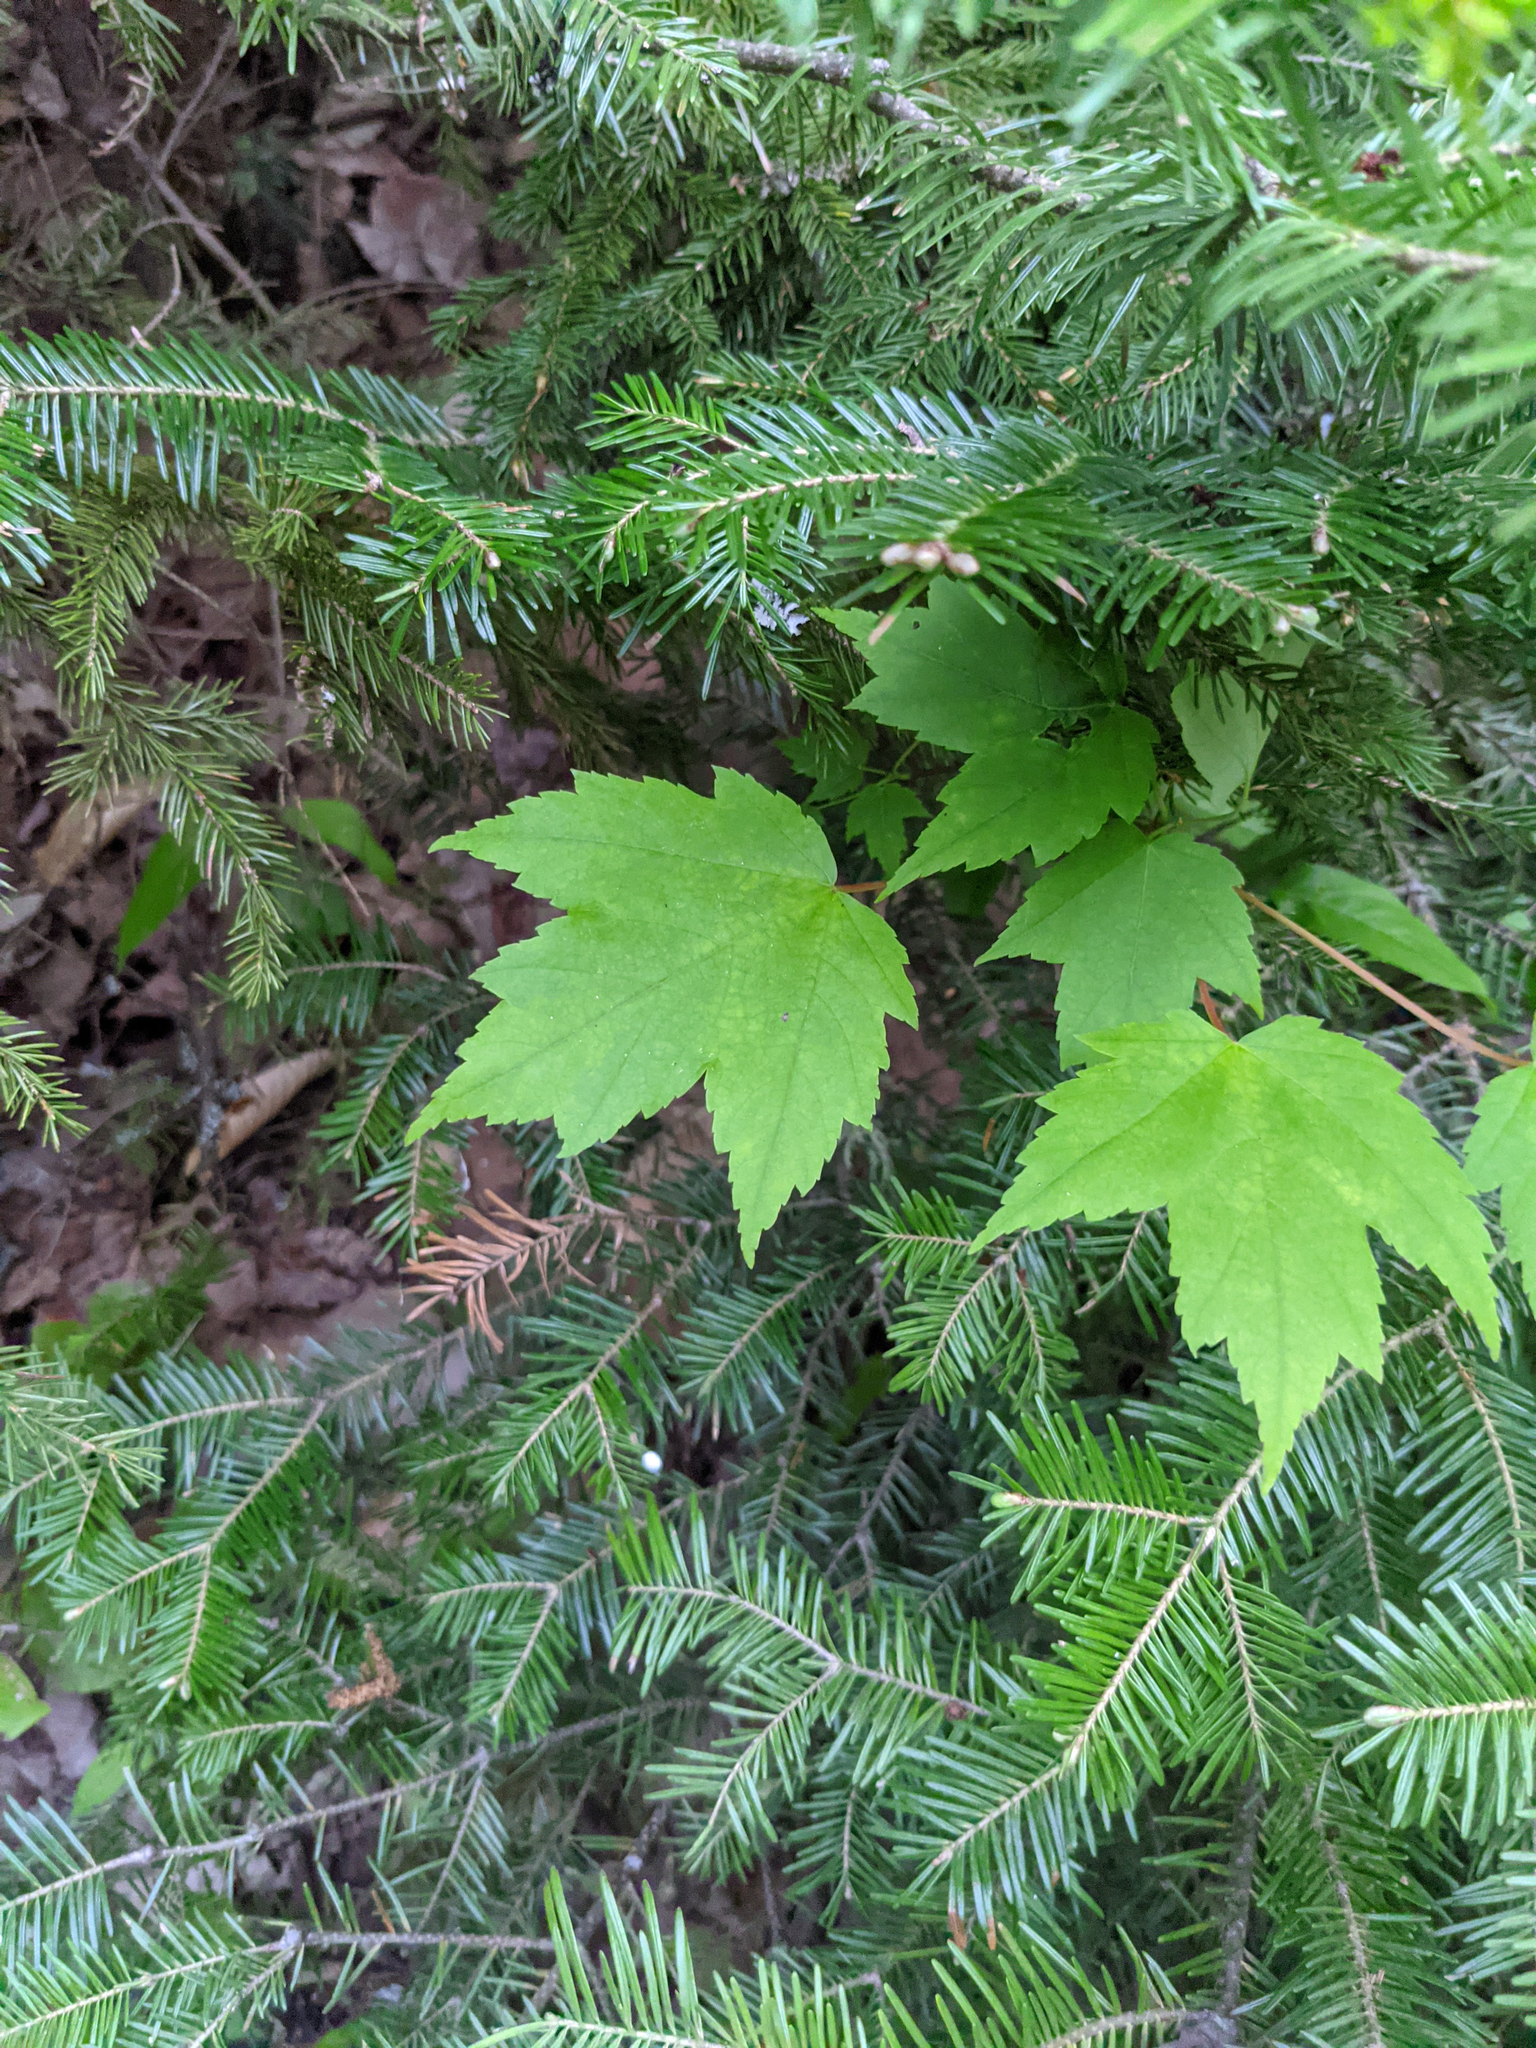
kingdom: Plantae
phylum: Tracheophyta
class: Magnoliopsida
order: Sapindales
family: Sapindaceae
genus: Acer
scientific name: Acer rubrum
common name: Red maple
